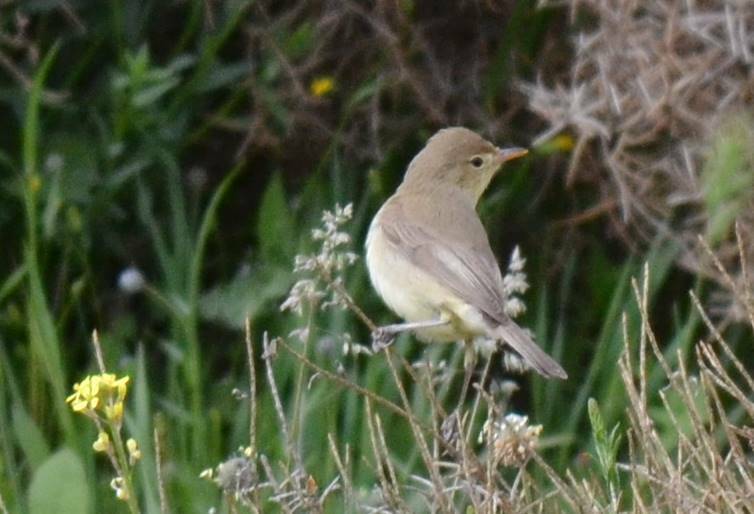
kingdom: Animalia
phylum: Chordata
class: Aves
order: Passeriformes
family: Acrocephalidae
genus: Hippolais
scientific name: Hippolais polyglotta
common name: Melodious warbler
